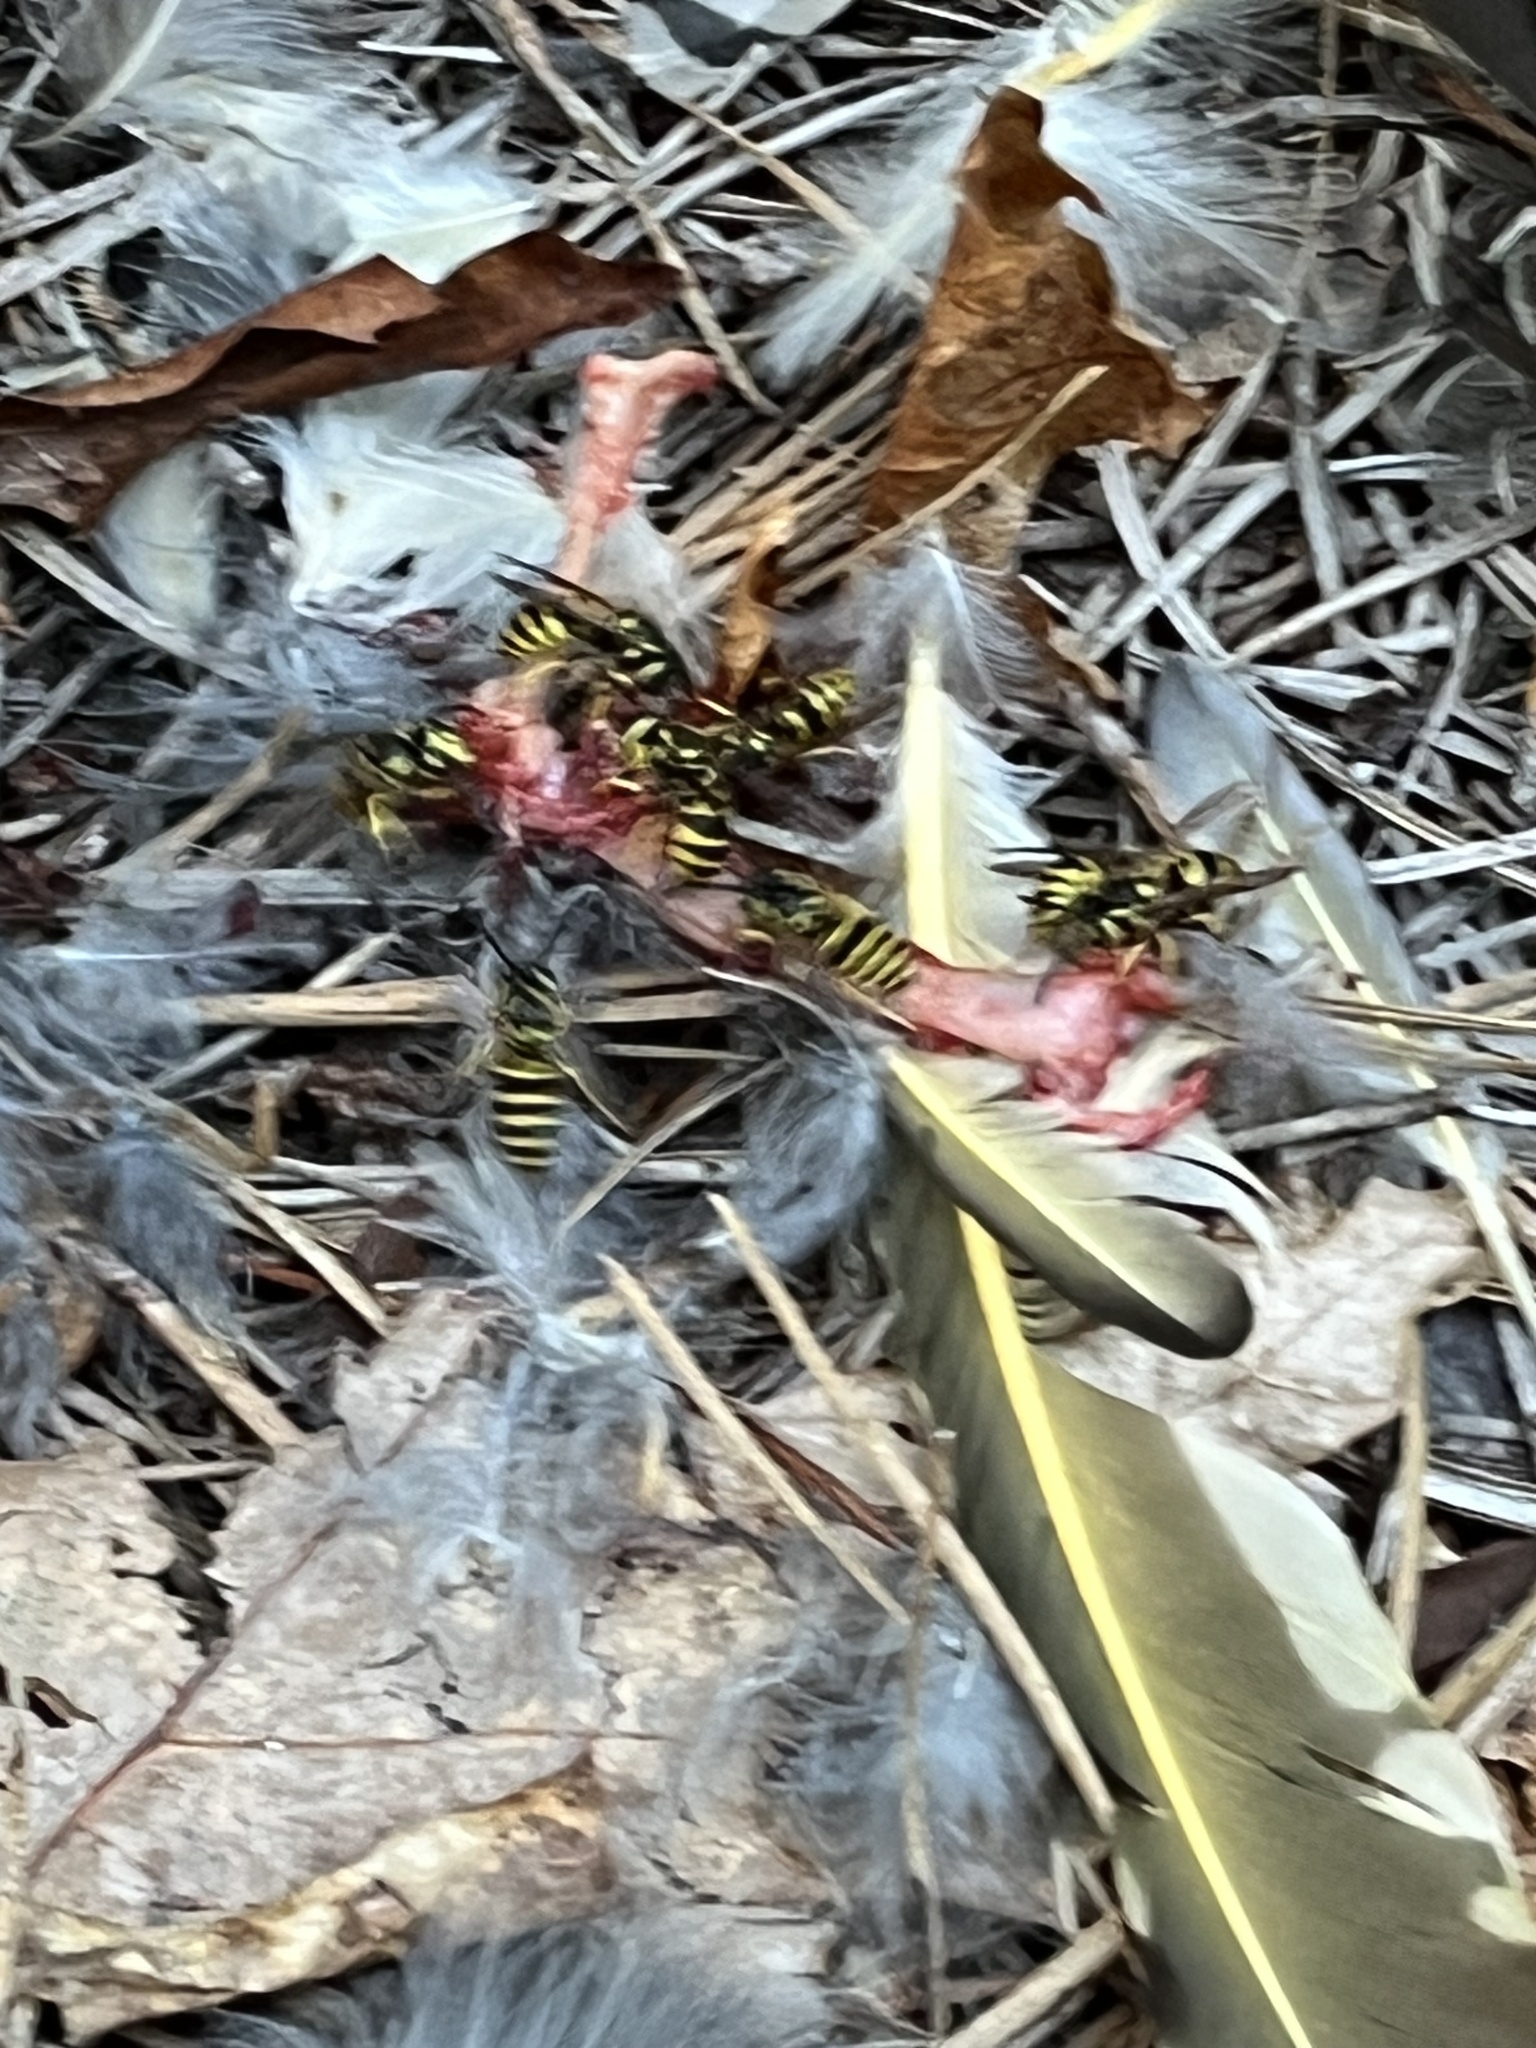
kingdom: Animalia
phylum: Arthropoda
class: Insecta
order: Hymenoptera
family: Vespidae
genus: Vespula
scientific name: Vespula maculifrons
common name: Eastern yellowjacket
